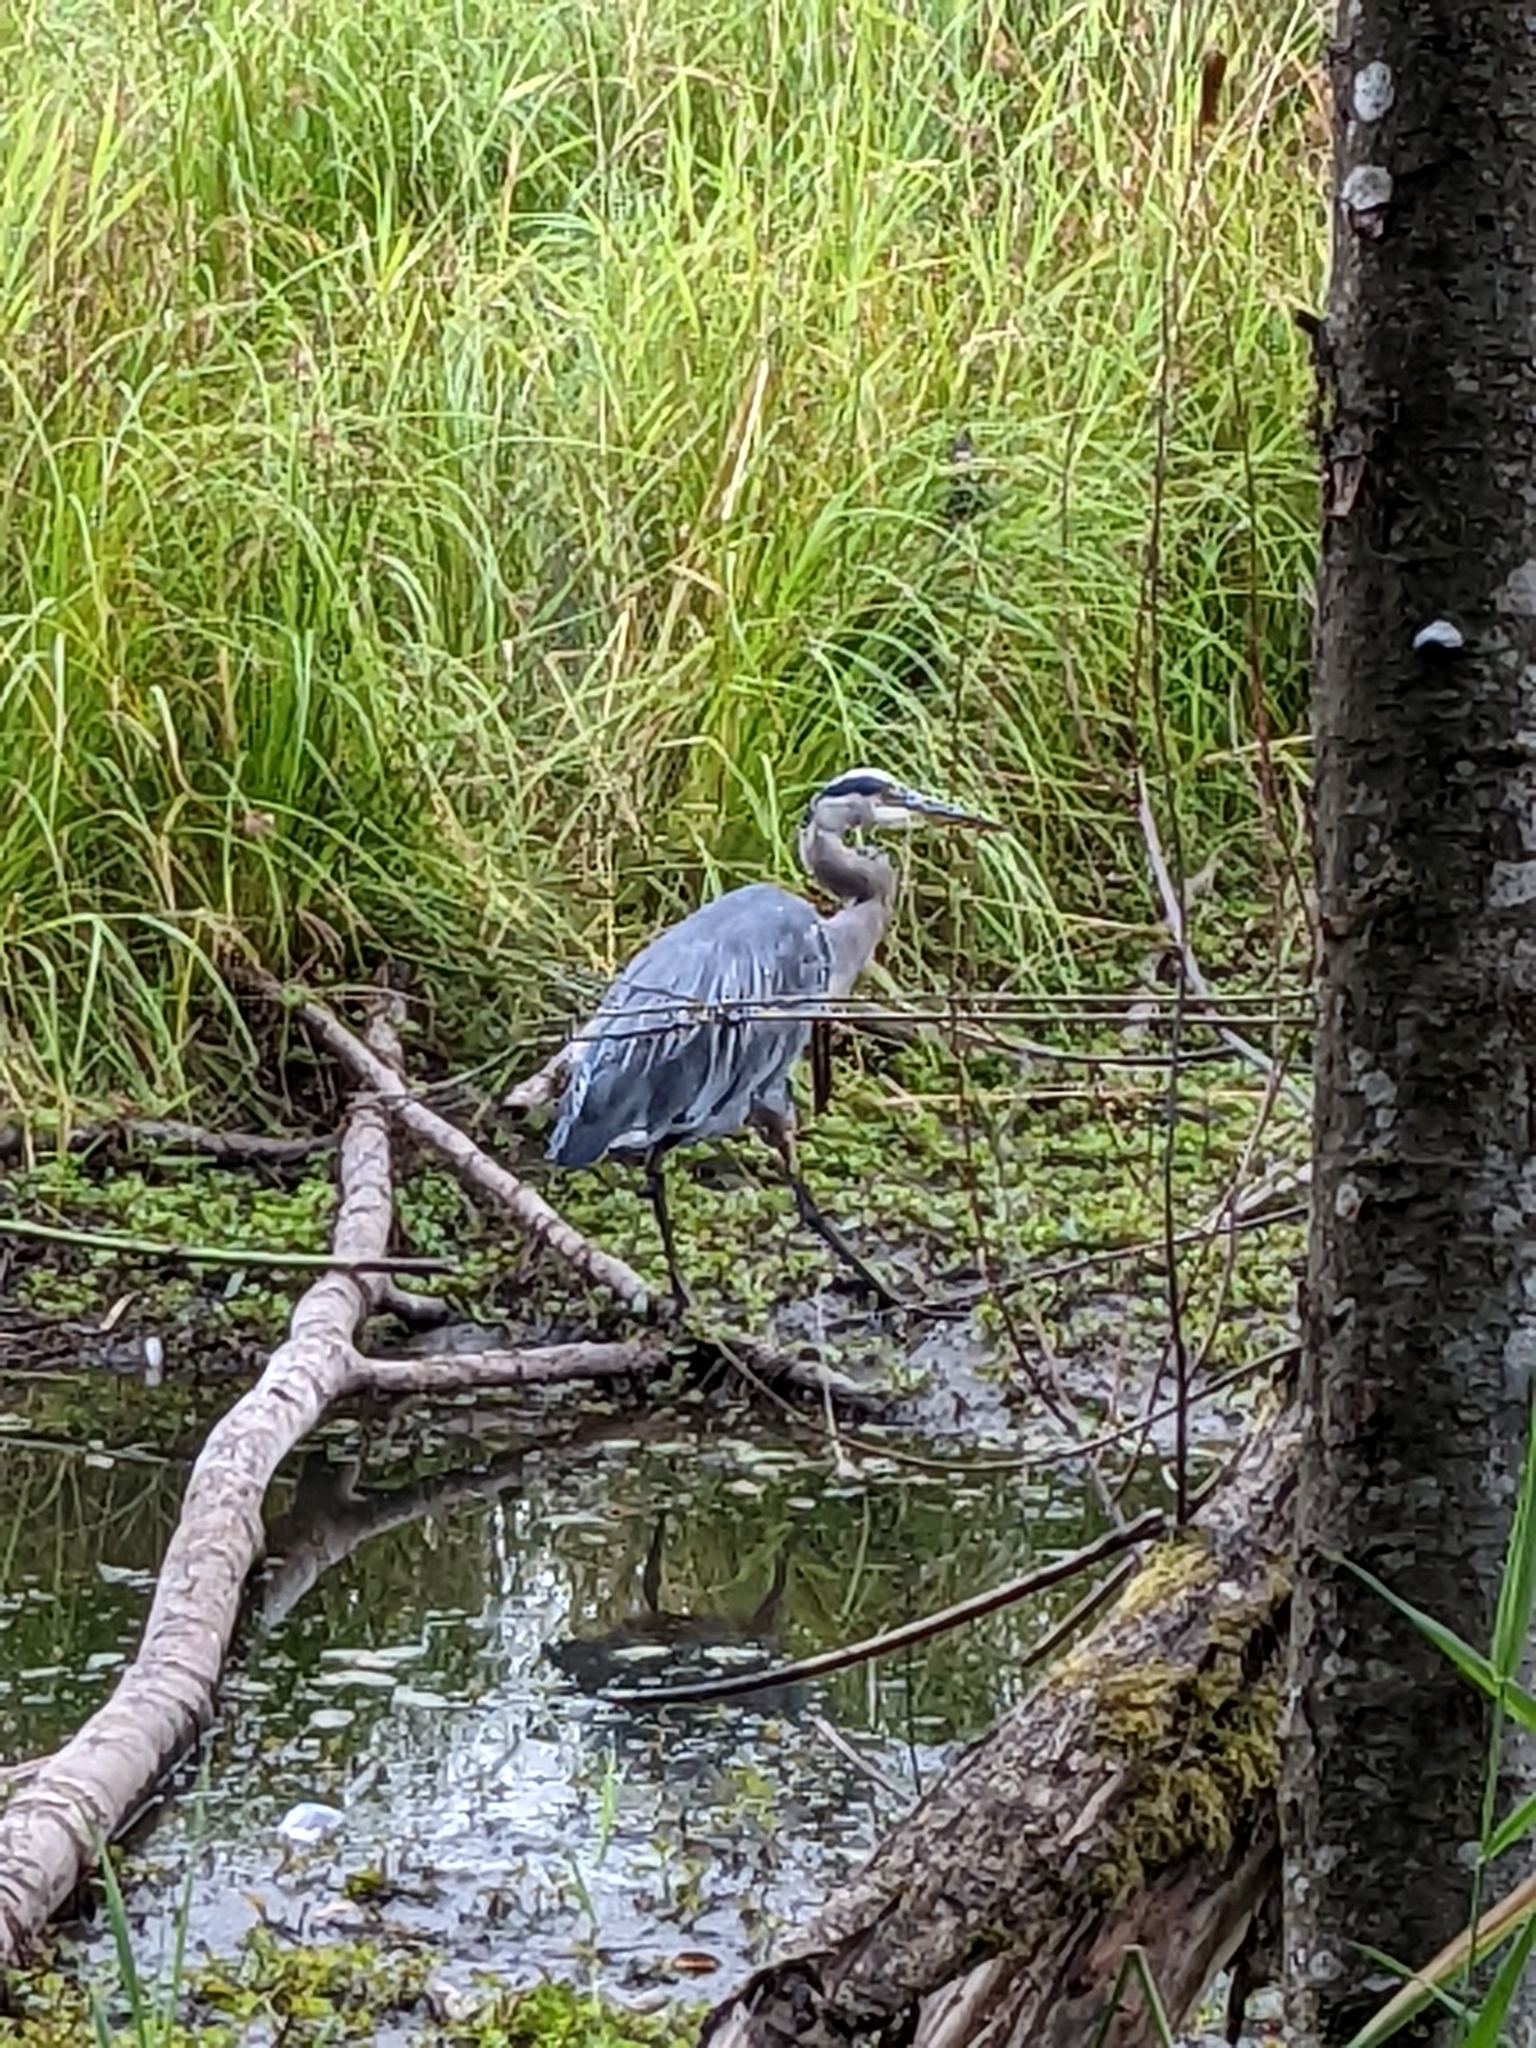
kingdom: Animalia
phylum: Chordata
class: Aves
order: Pelecaniformes
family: Ardeidae
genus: Ardea
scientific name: Ardea herodias
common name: Great blue heron
